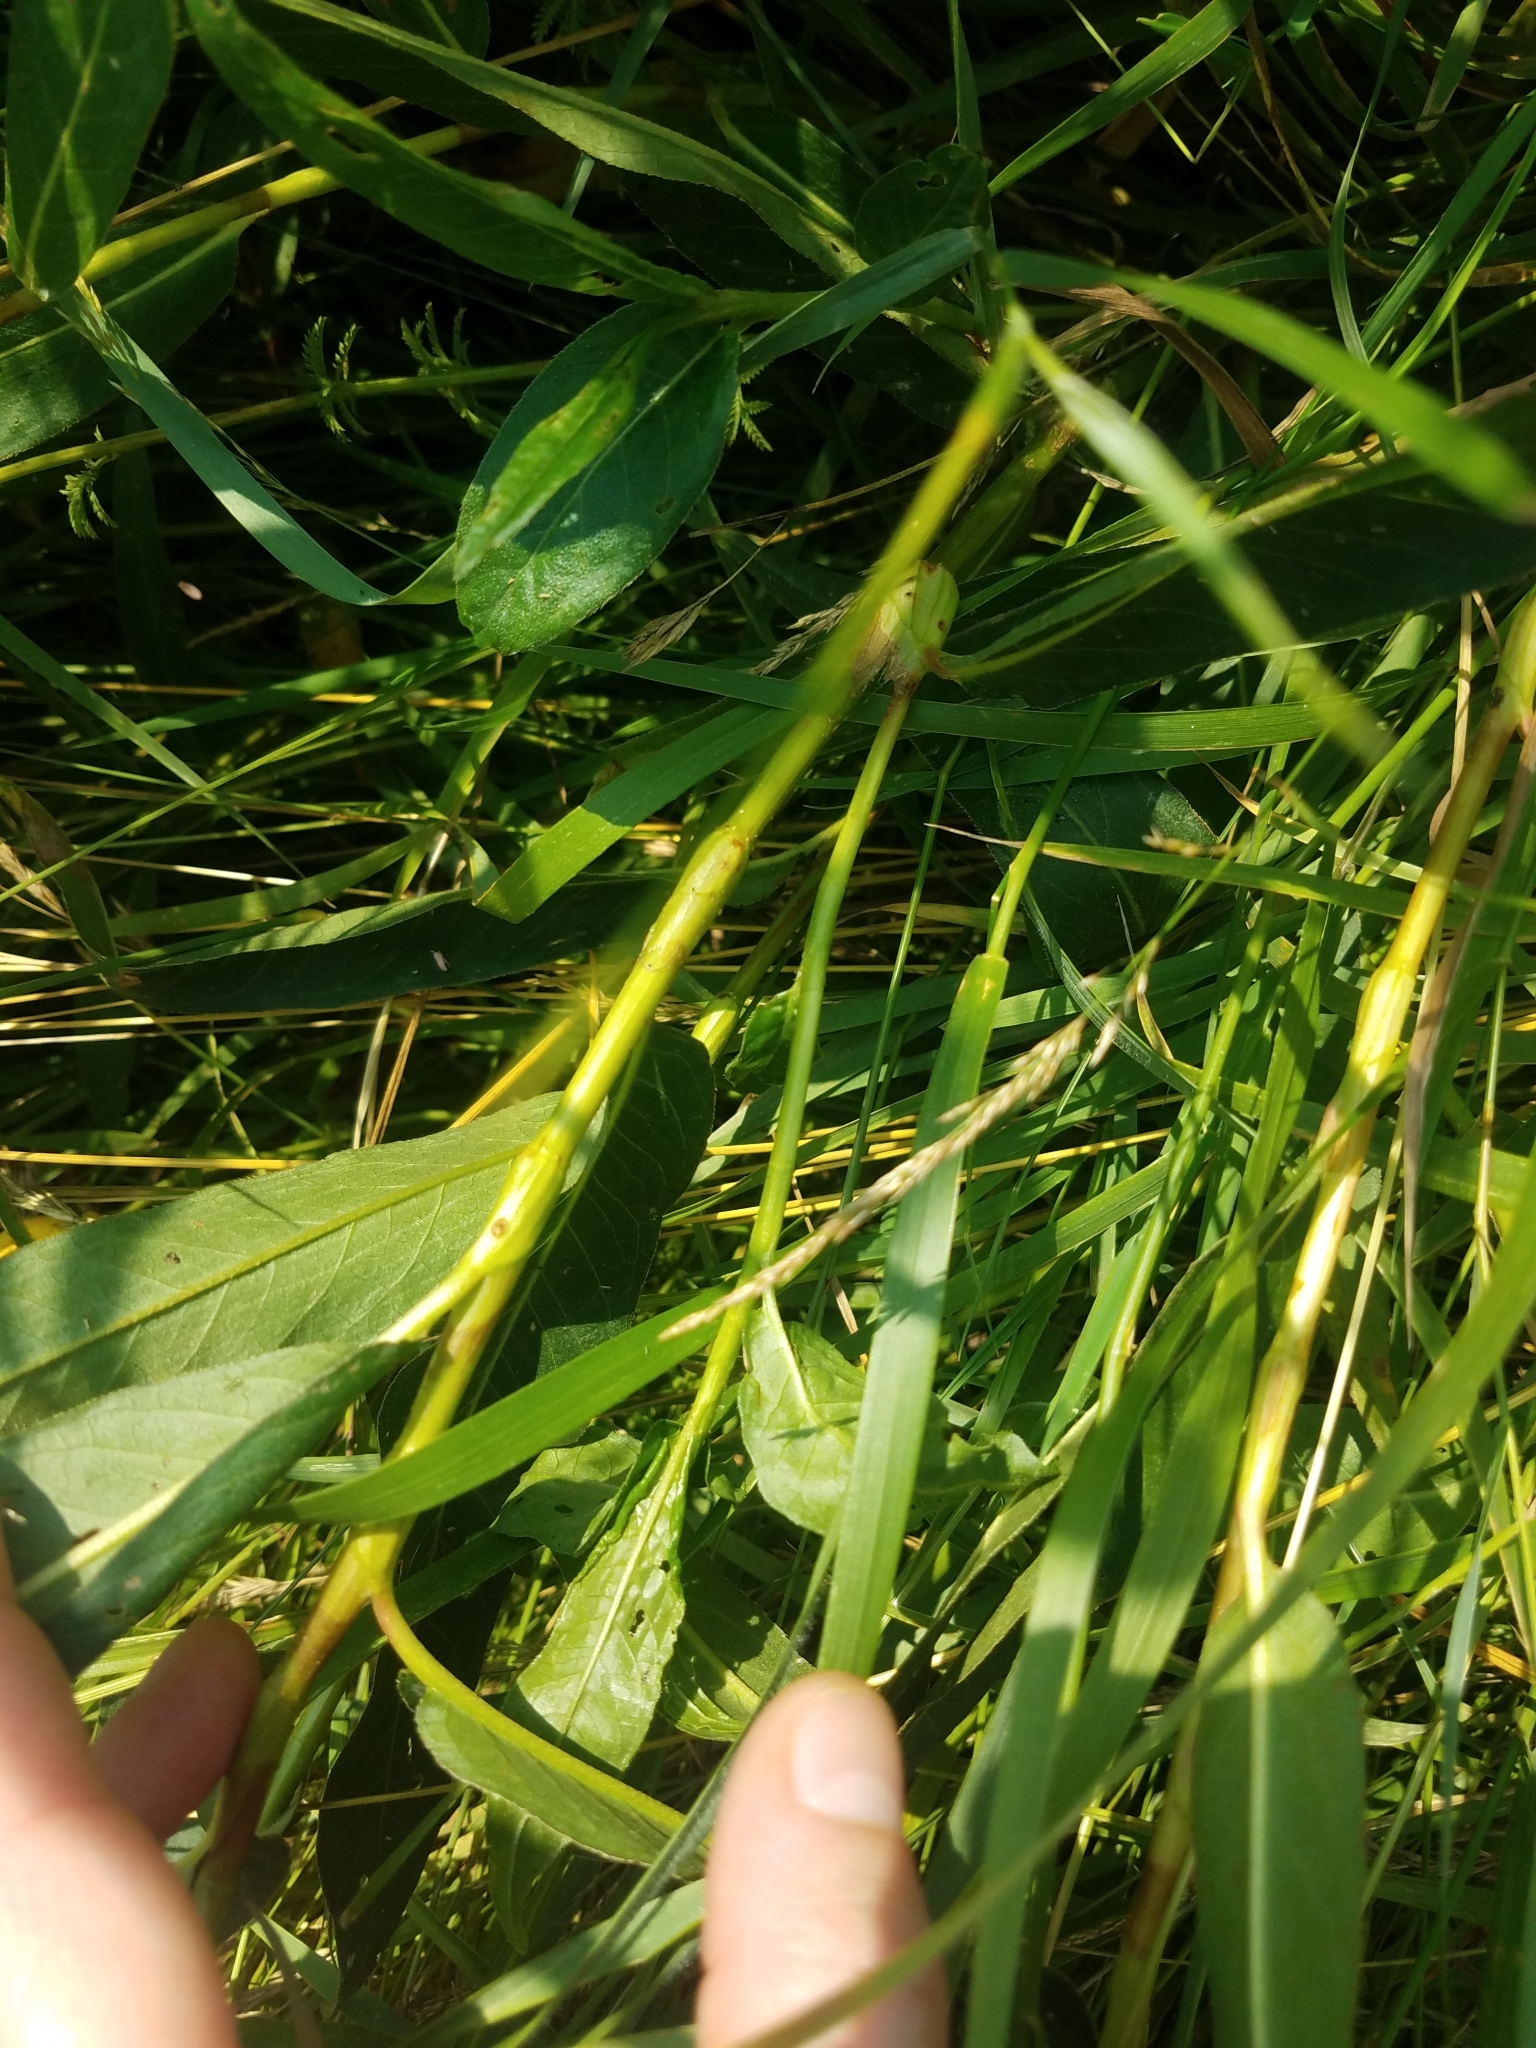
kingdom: Plantae
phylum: Tracheophyta
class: Magnoliopsida
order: Caryophyllales
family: Polygonaceae
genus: Persicaria
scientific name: Persicaria amphibia
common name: Amphibious bistort
